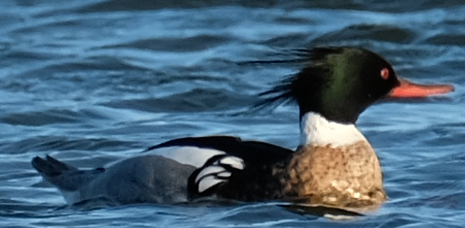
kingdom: Animalia
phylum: Chordata
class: Aves
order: Anseriformes
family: Anatidae
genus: Mergus
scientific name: Mergus serrator
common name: Red-breasted merganser
